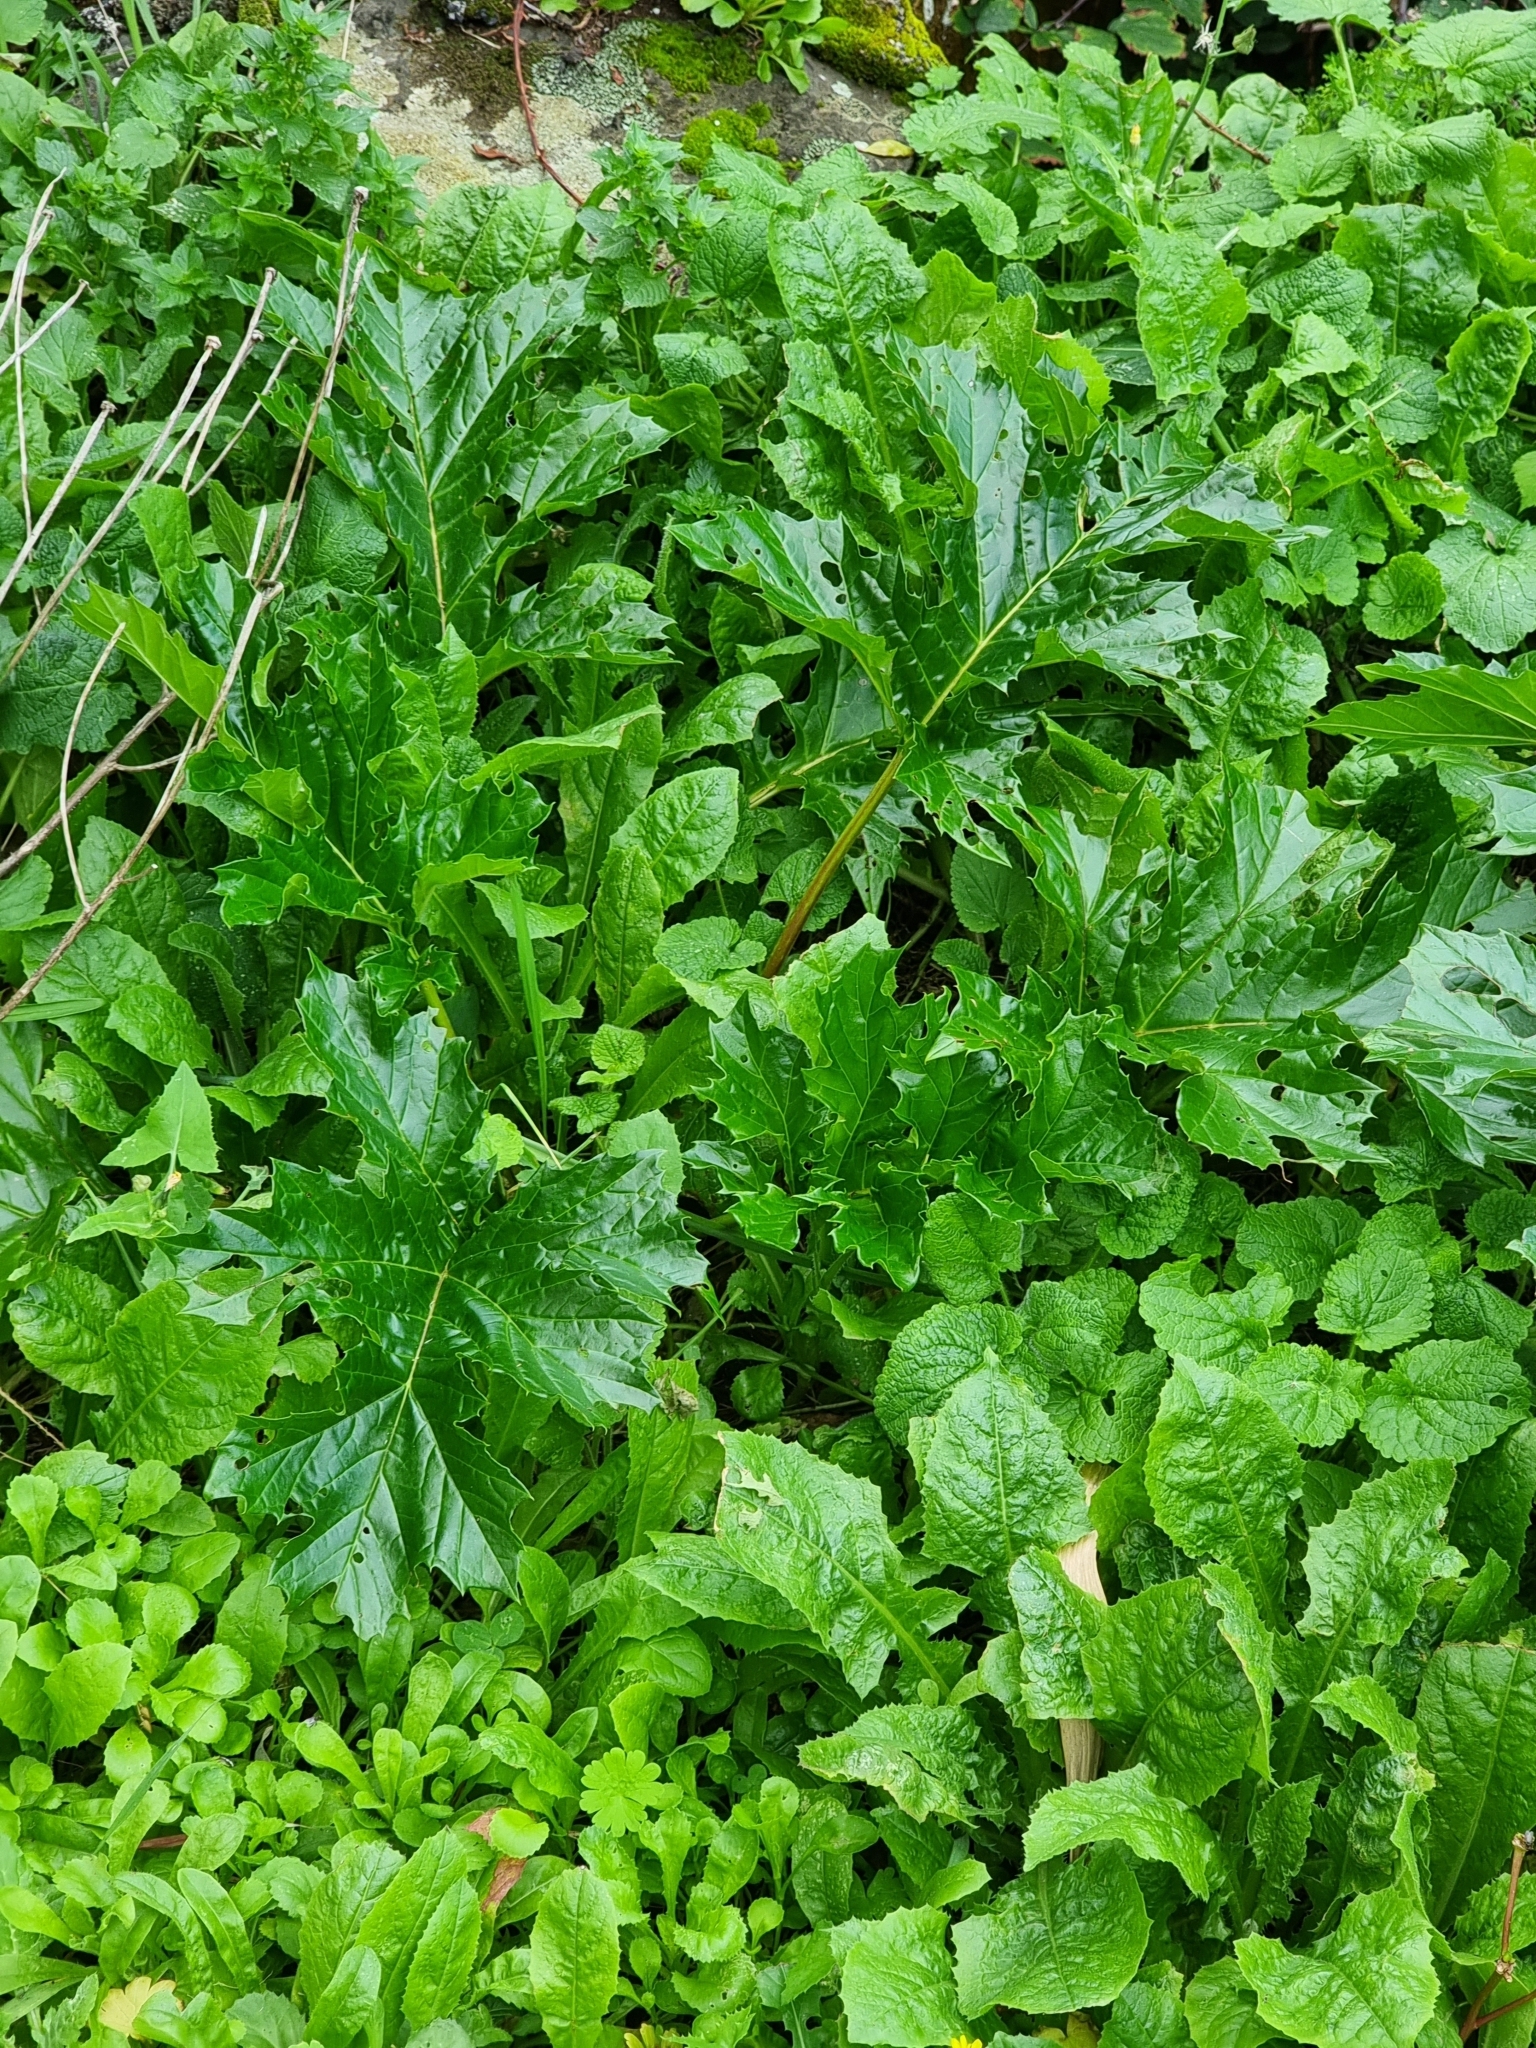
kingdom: Plantae
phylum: Tracheophyta
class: Magnoliopsida
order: Lamiales
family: Acanthaceae
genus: Acanthus
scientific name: Acanthus mollis
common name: Bear's-breech
